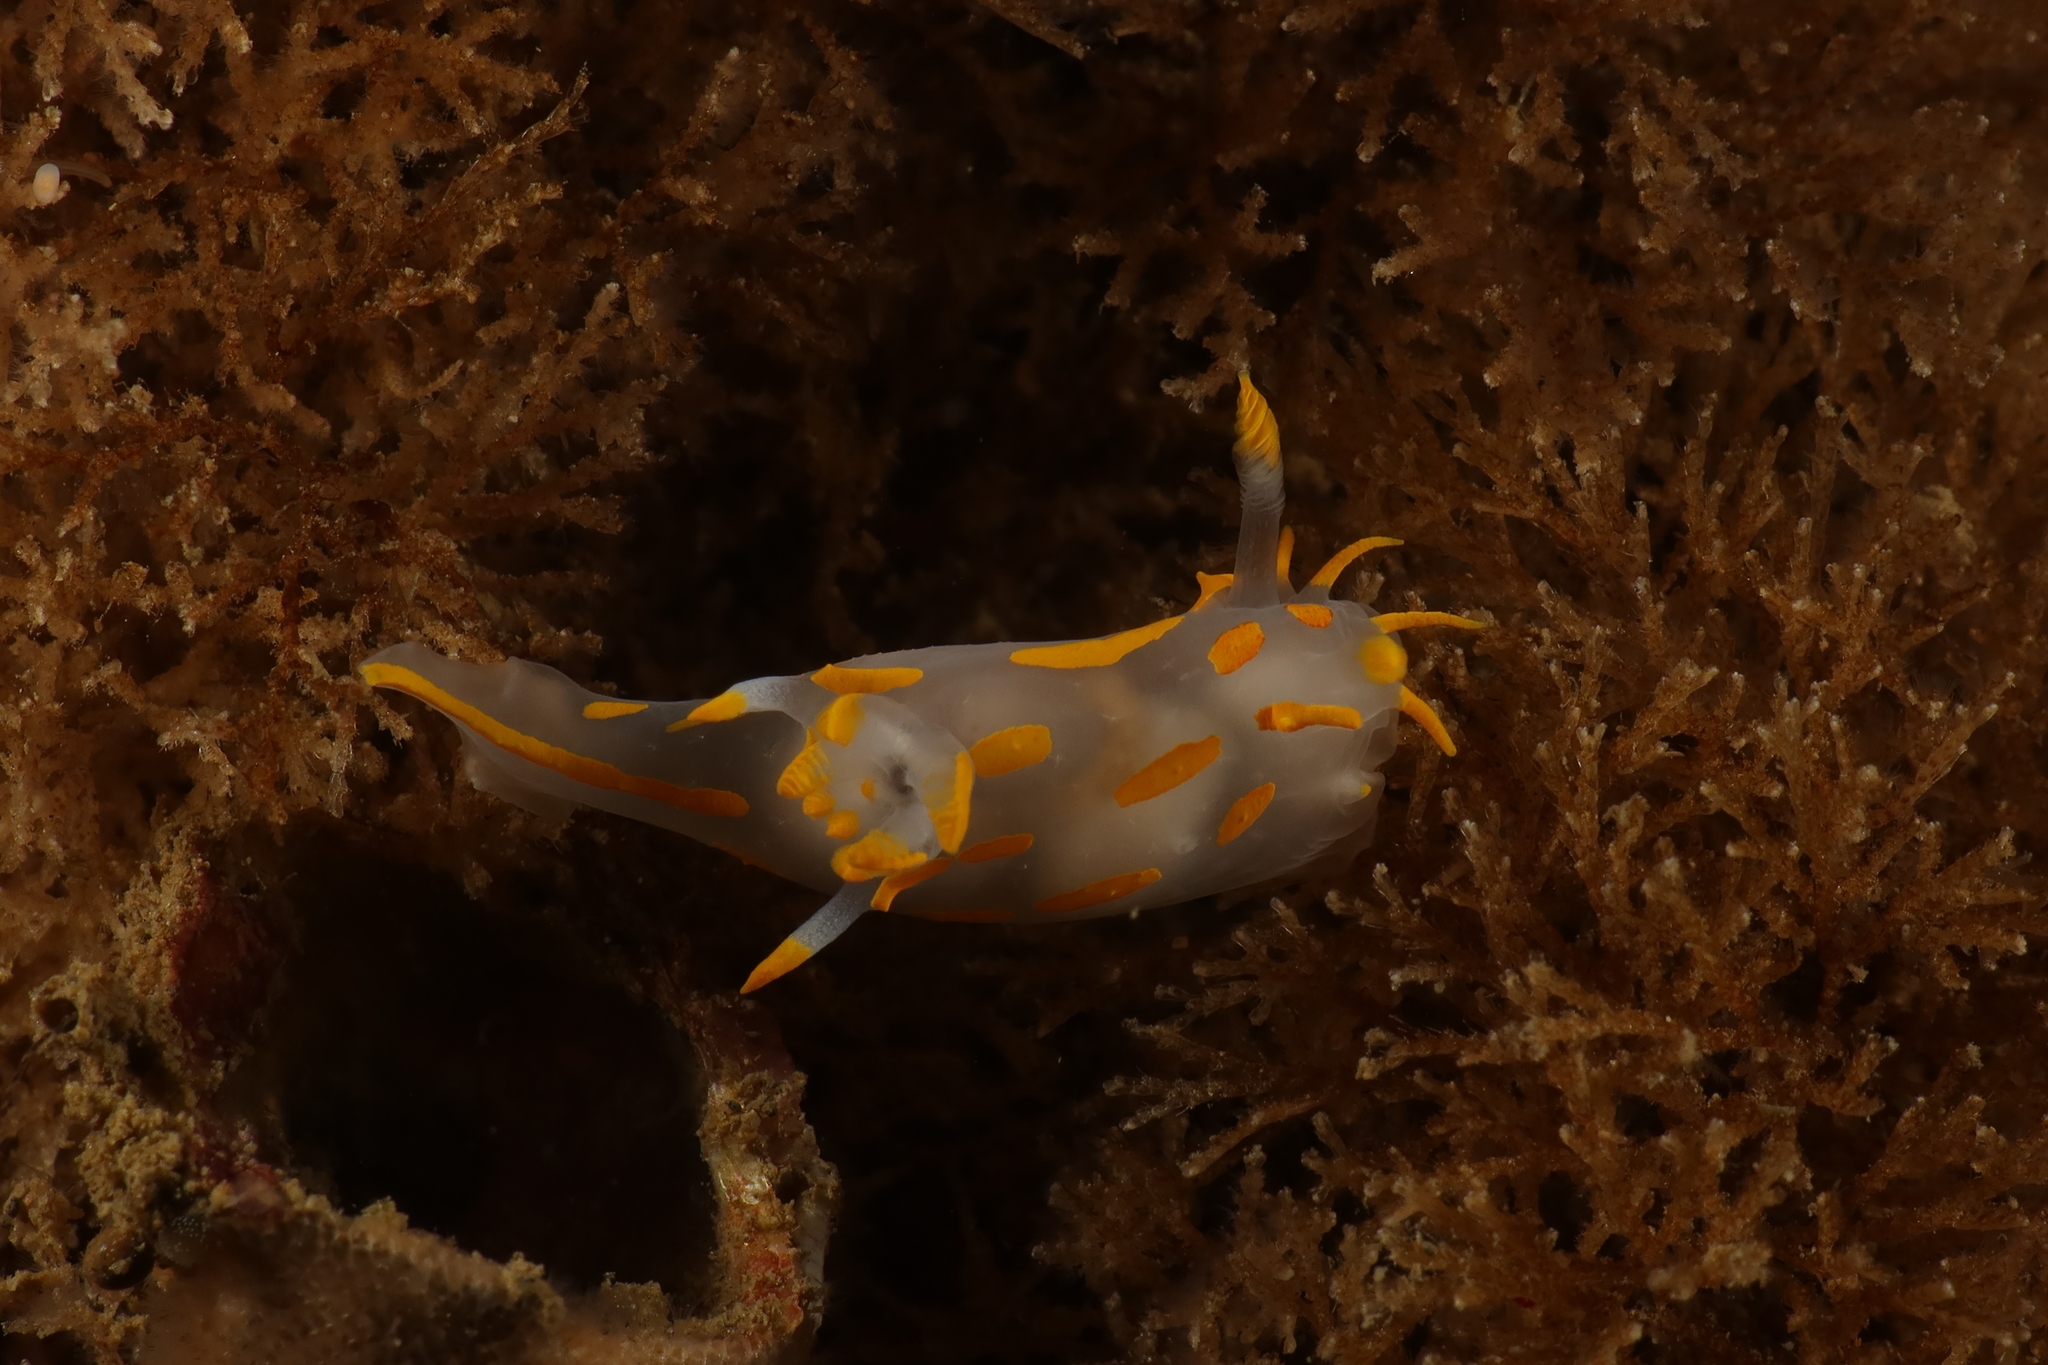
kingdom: Animalia
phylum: Mollusca
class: Gastropoda
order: Nudibranchia
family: Polyceridae
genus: Polycera
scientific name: Polycera quadrilineata
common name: Four-striped polycera
